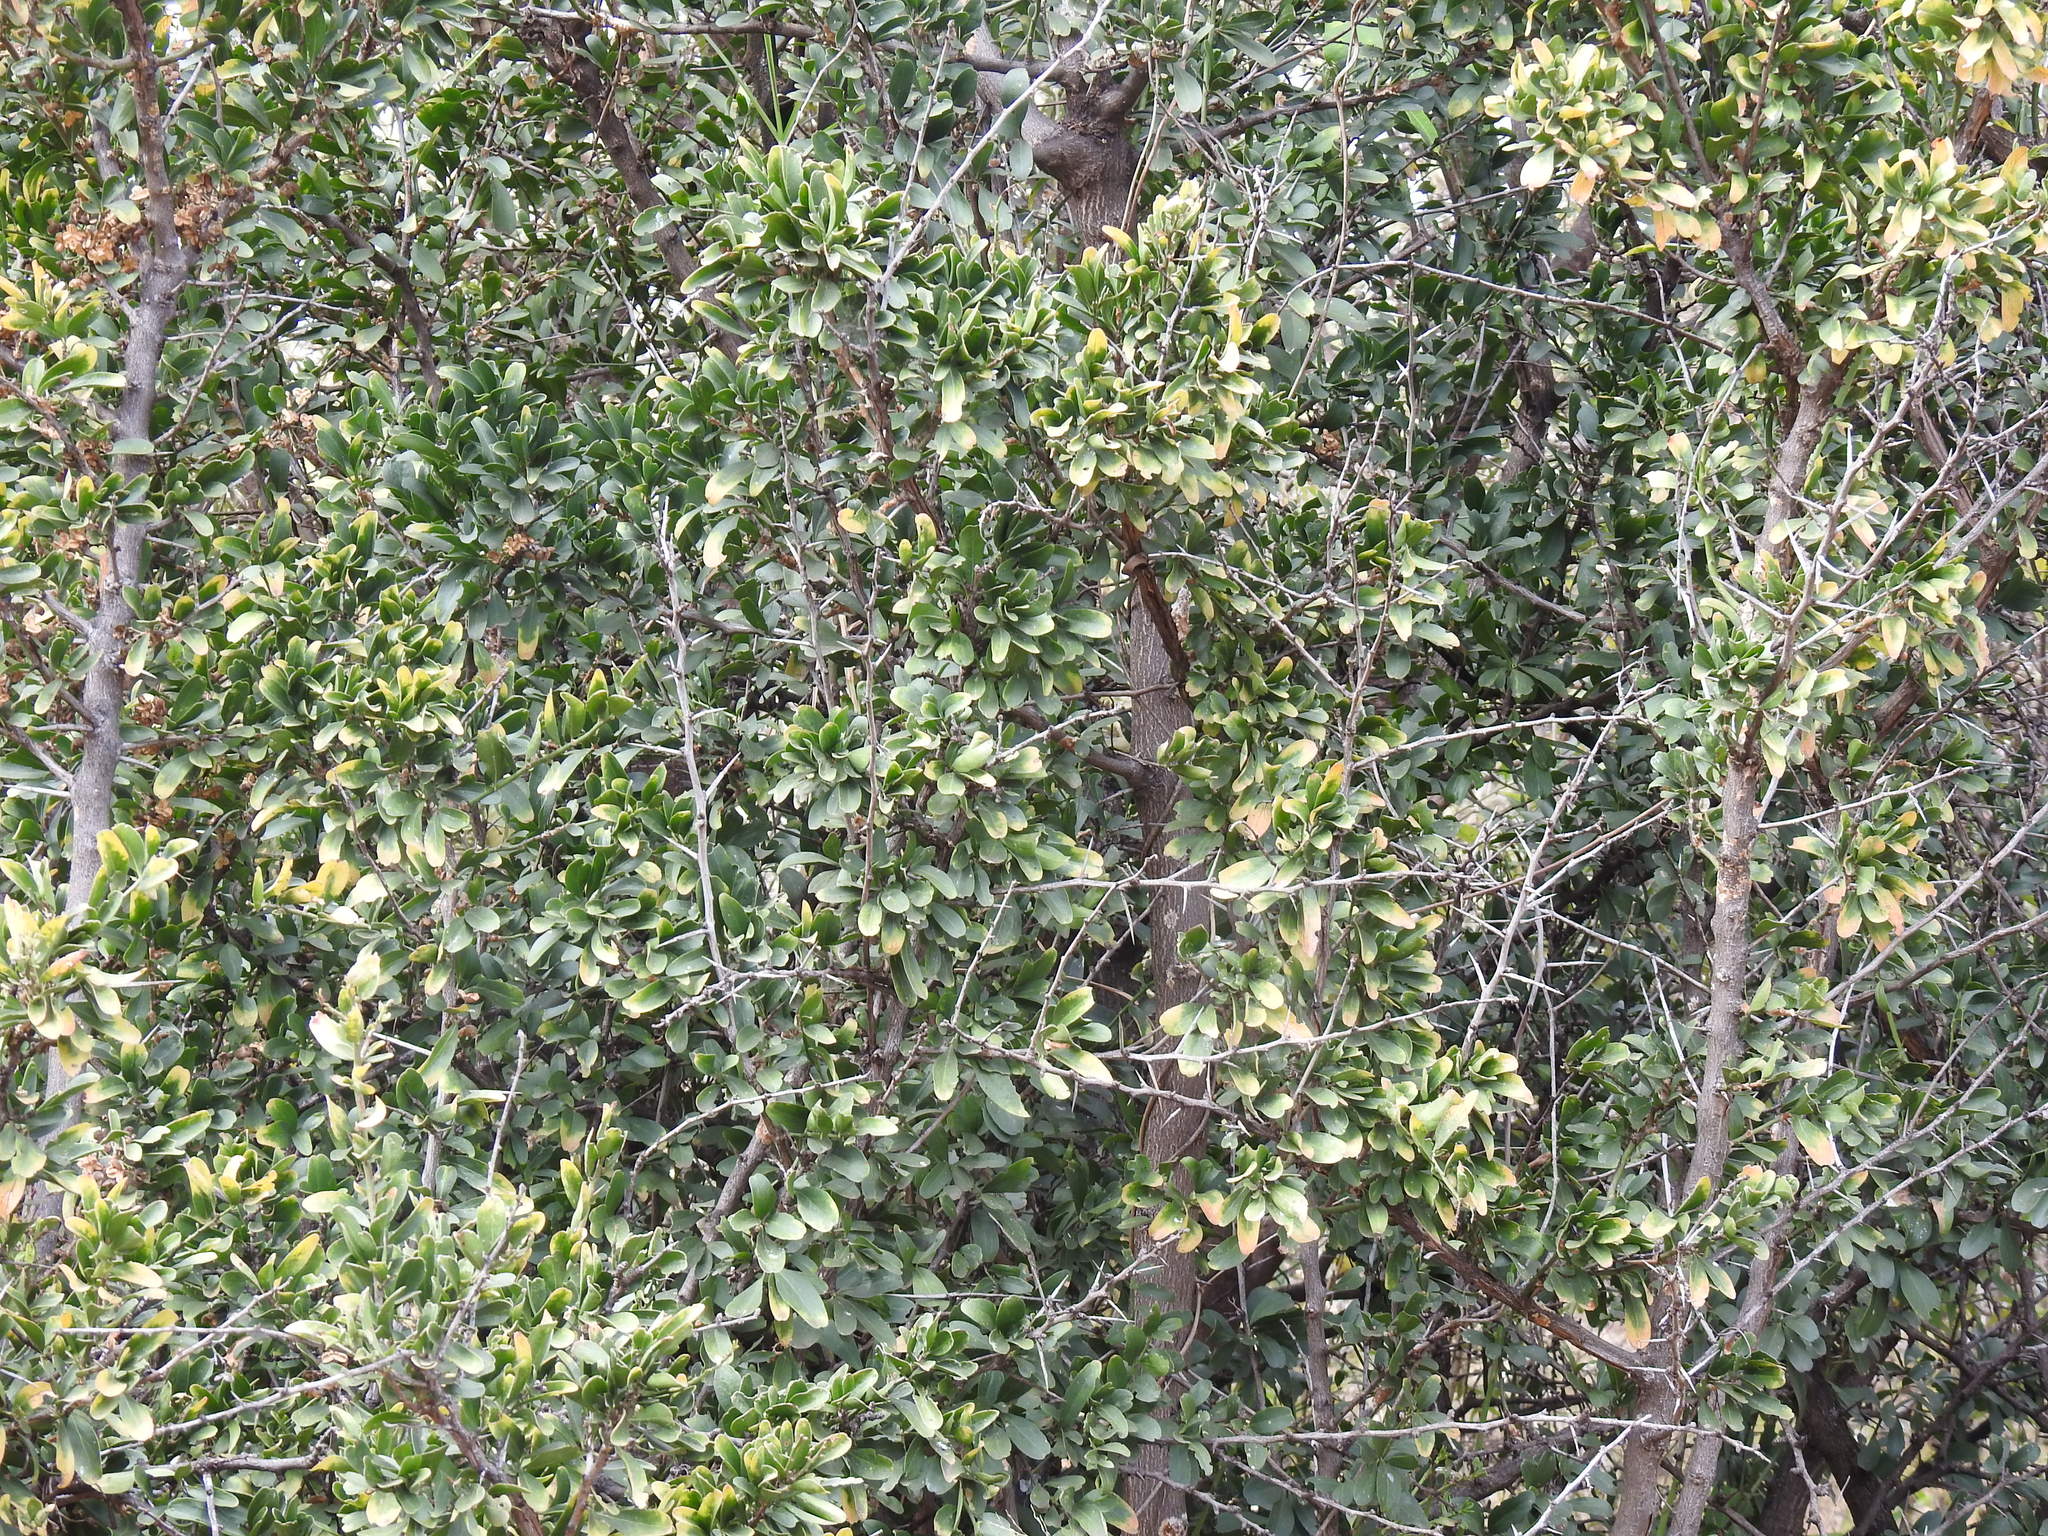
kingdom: Plantae
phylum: Tracheophyta
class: Magnoliopsida
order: Celastrales
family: Celastraceae
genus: Gymnosporia
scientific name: Gymnosporia buxifolia
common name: Common spike-thorn
